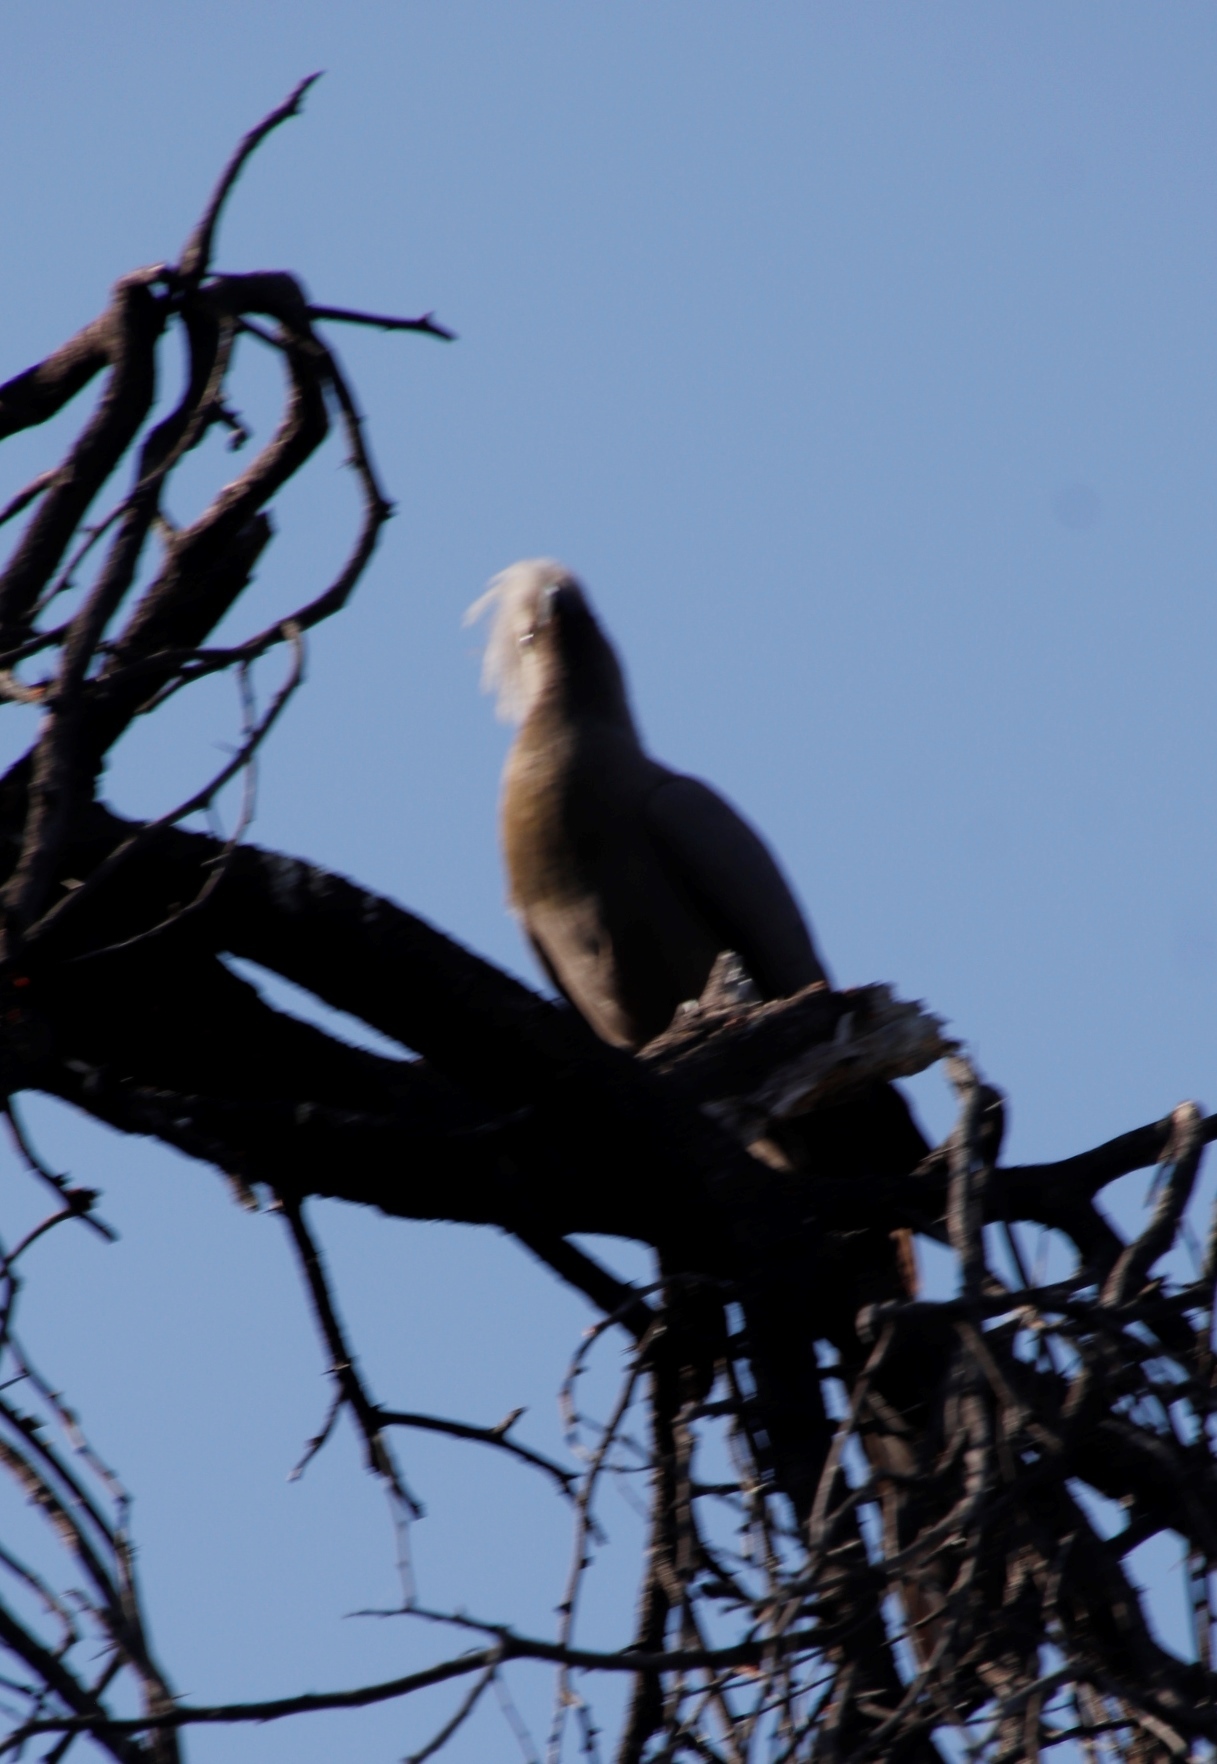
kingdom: Animalia
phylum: Chordata
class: Aves
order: Musophagiformes
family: Musophagidae
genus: Corythaixoides
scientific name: Corythaixoides concolor
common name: Grey go-away-bird
